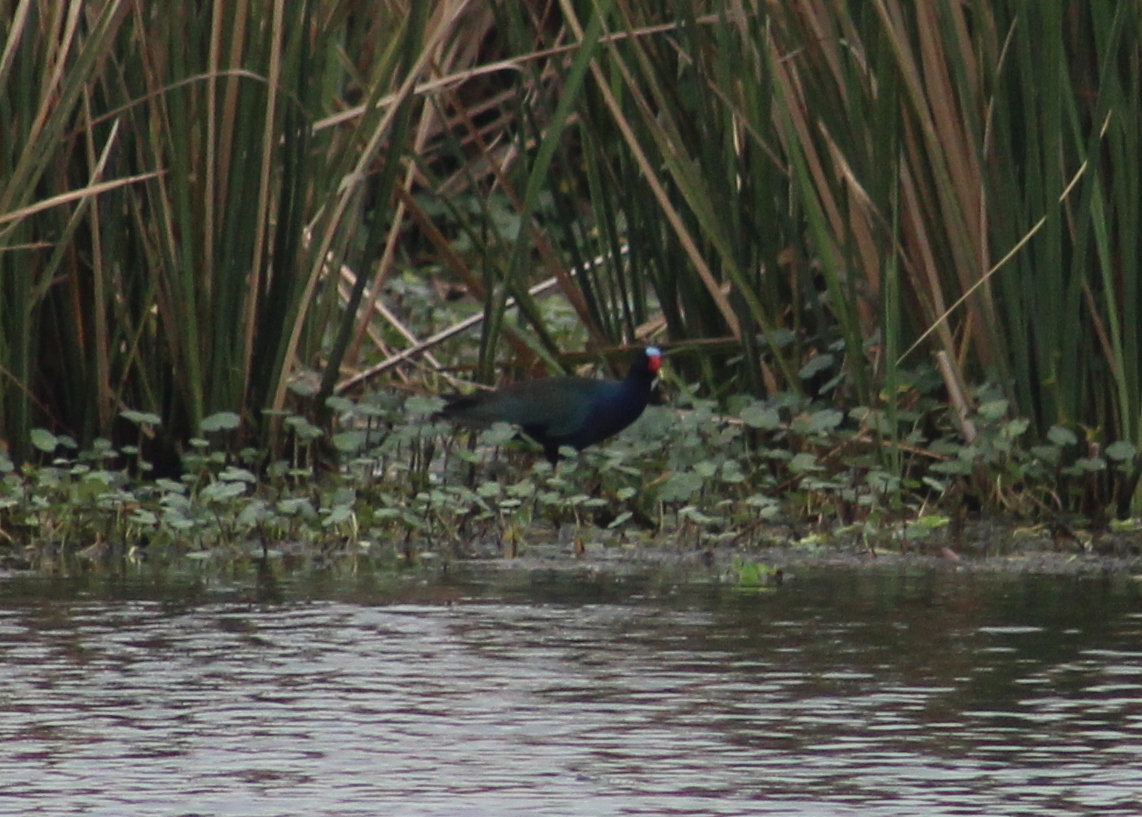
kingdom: Animalia
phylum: Chordata
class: Aves
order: Gruiformes
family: Rallidae
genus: Porphyrio
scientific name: Porphyrio martinica
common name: Purple gallinule
